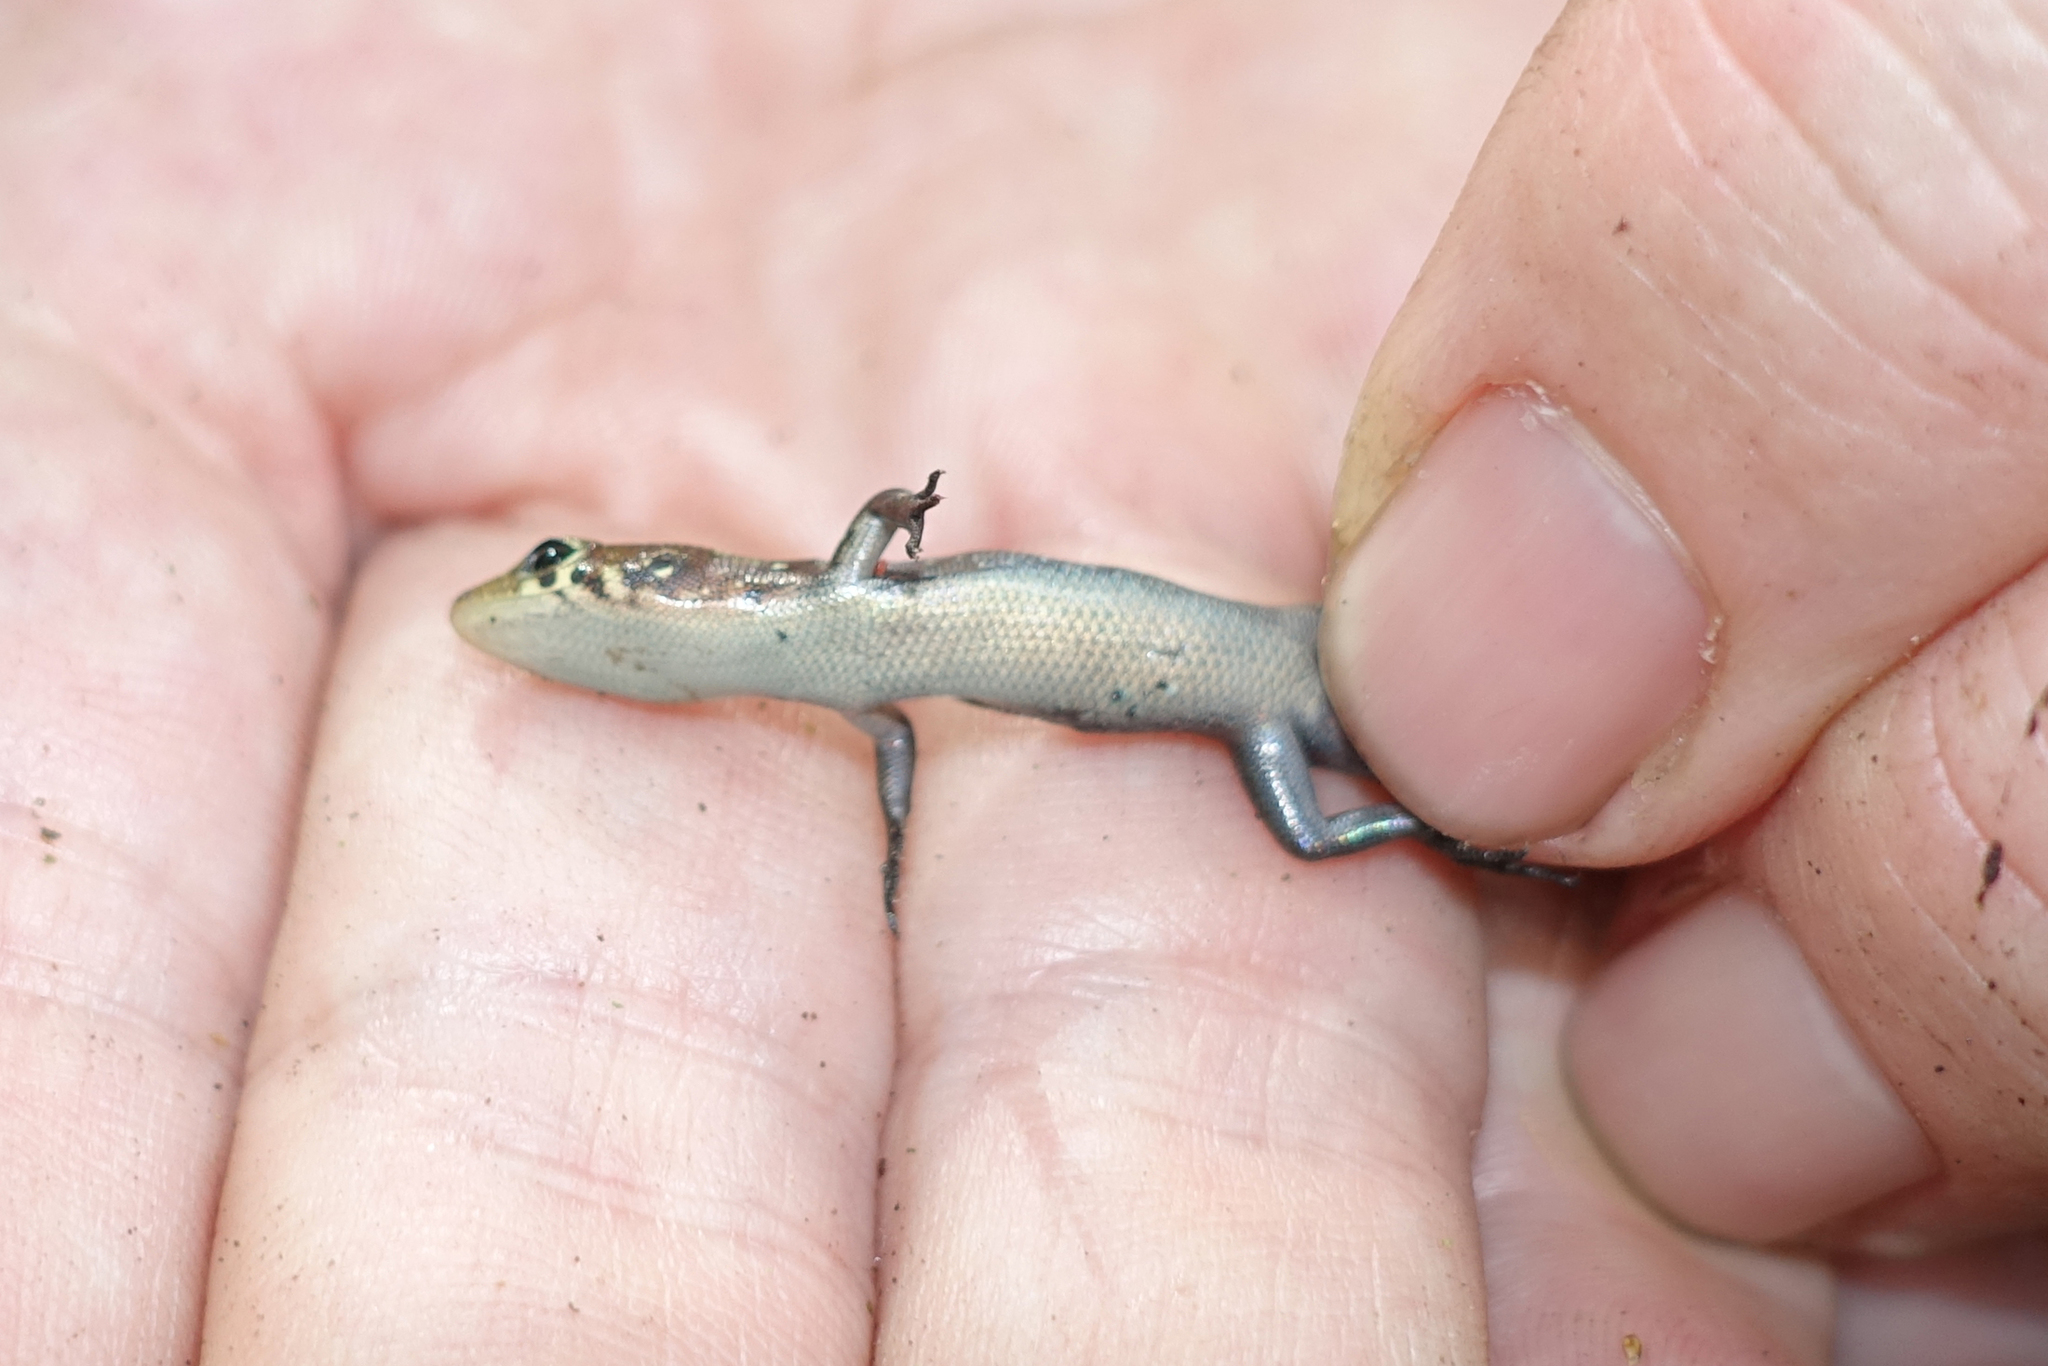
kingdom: Animalia
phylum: Chordata
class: Squamata
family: Scincidae
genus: Emoia
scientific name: Emoia physicae
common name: Slender skink
